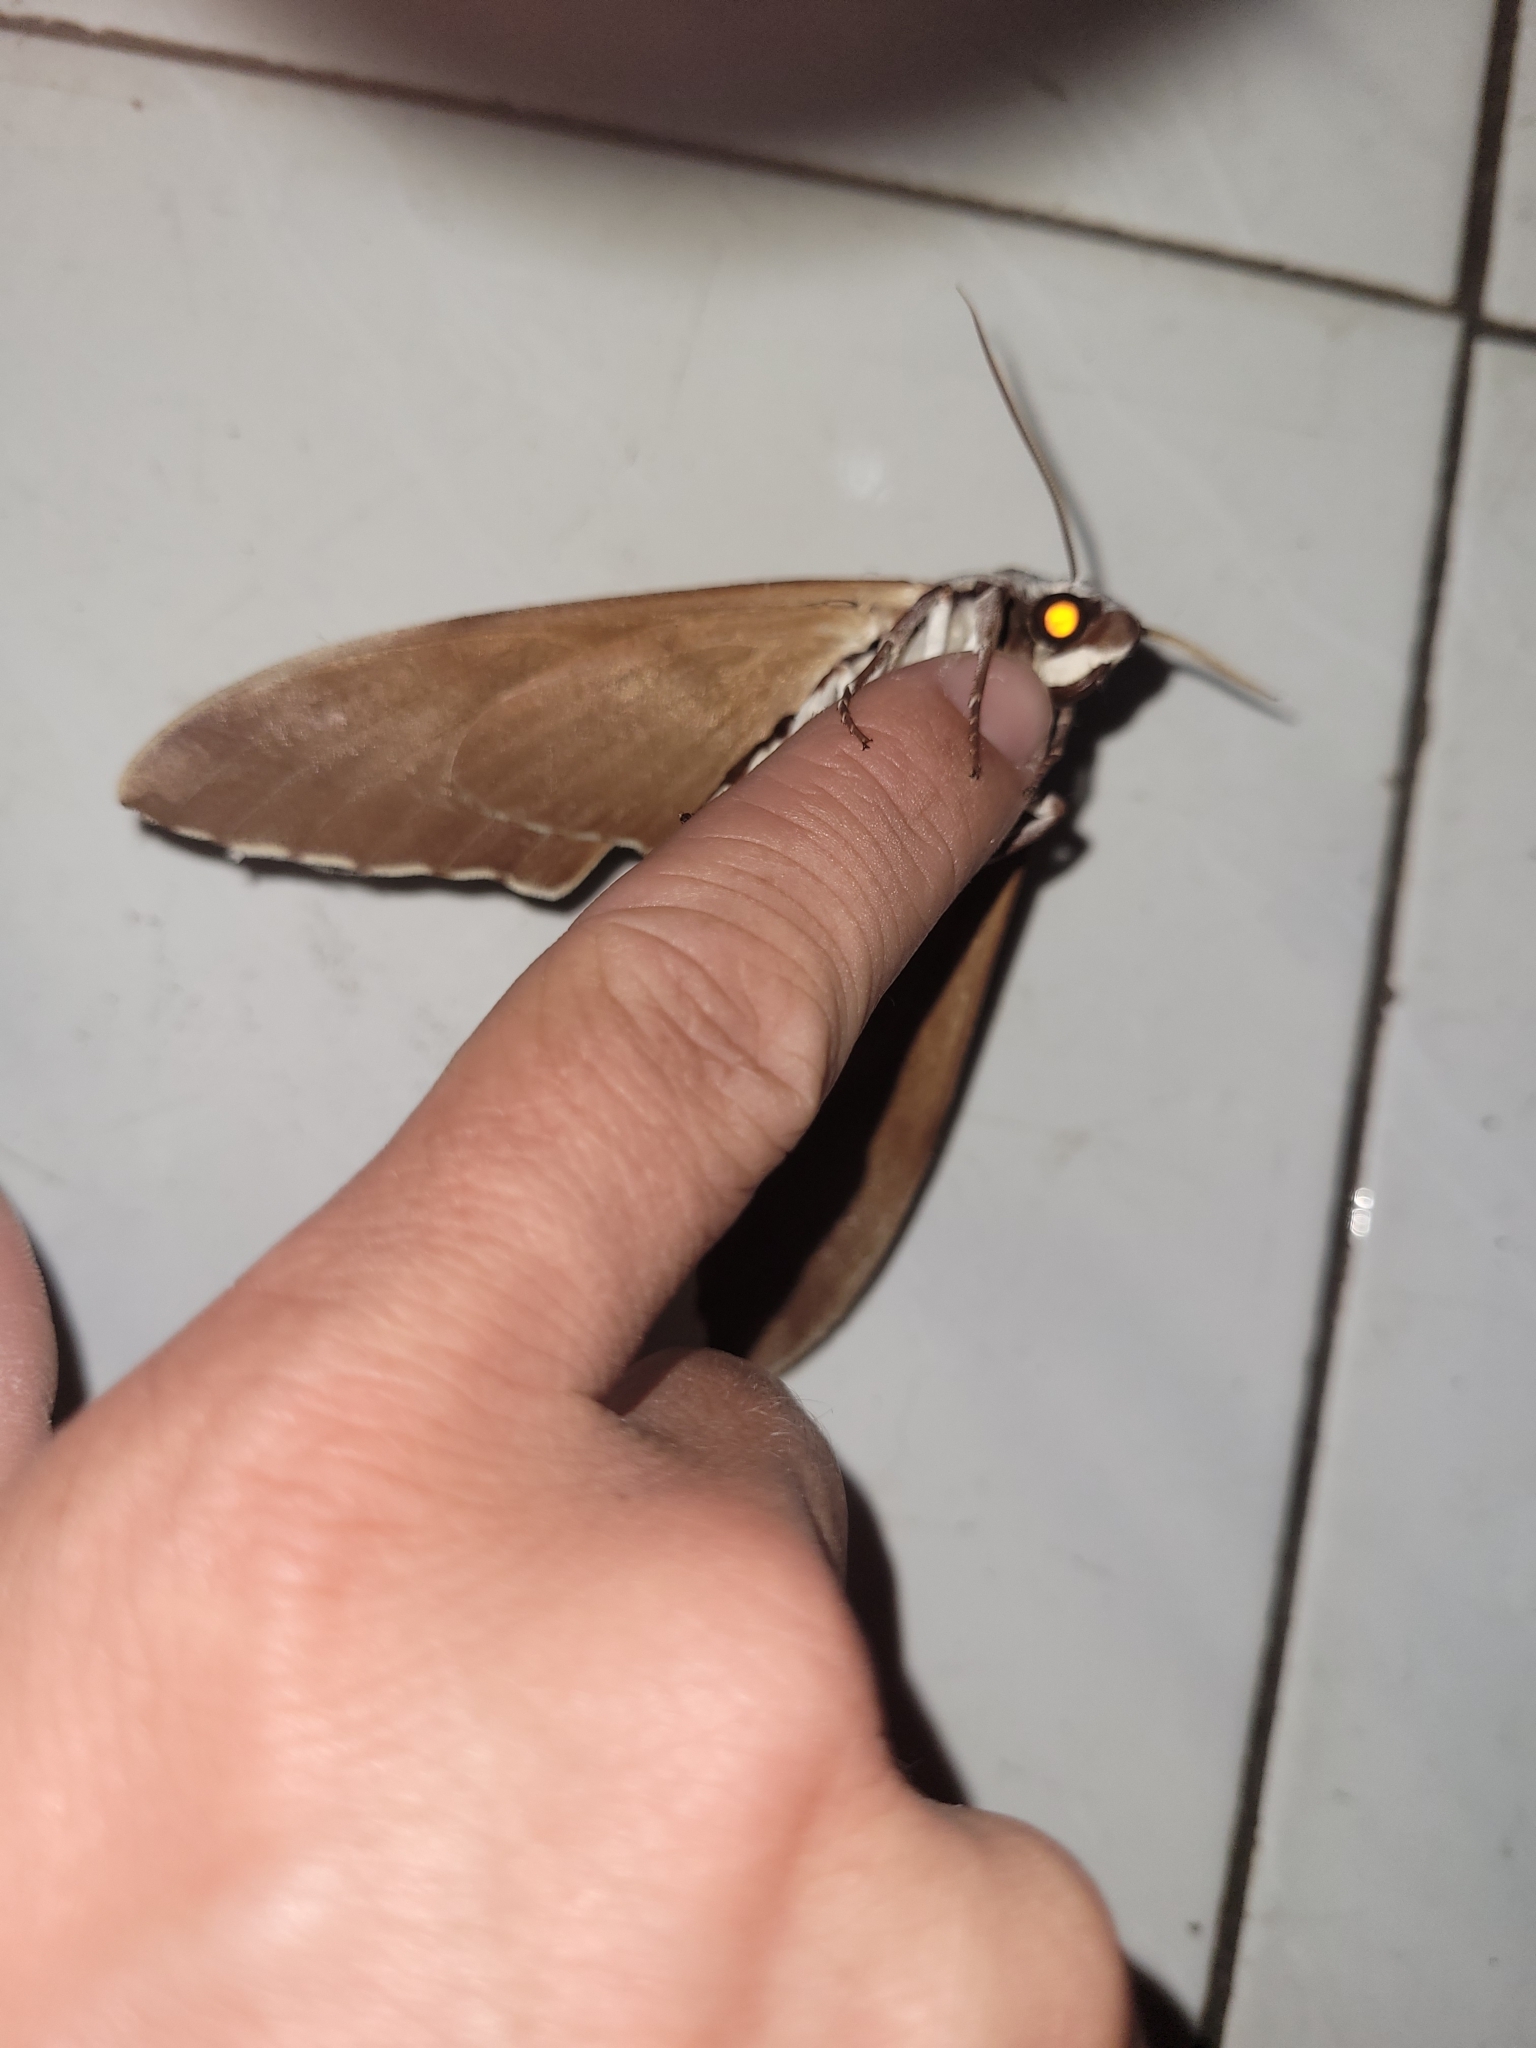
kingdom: Animalia
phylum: Arthropoda
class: Insecta
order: Lepidoptera
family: Sphingidae
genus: Notonagemia
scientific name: Notonagemia analis
